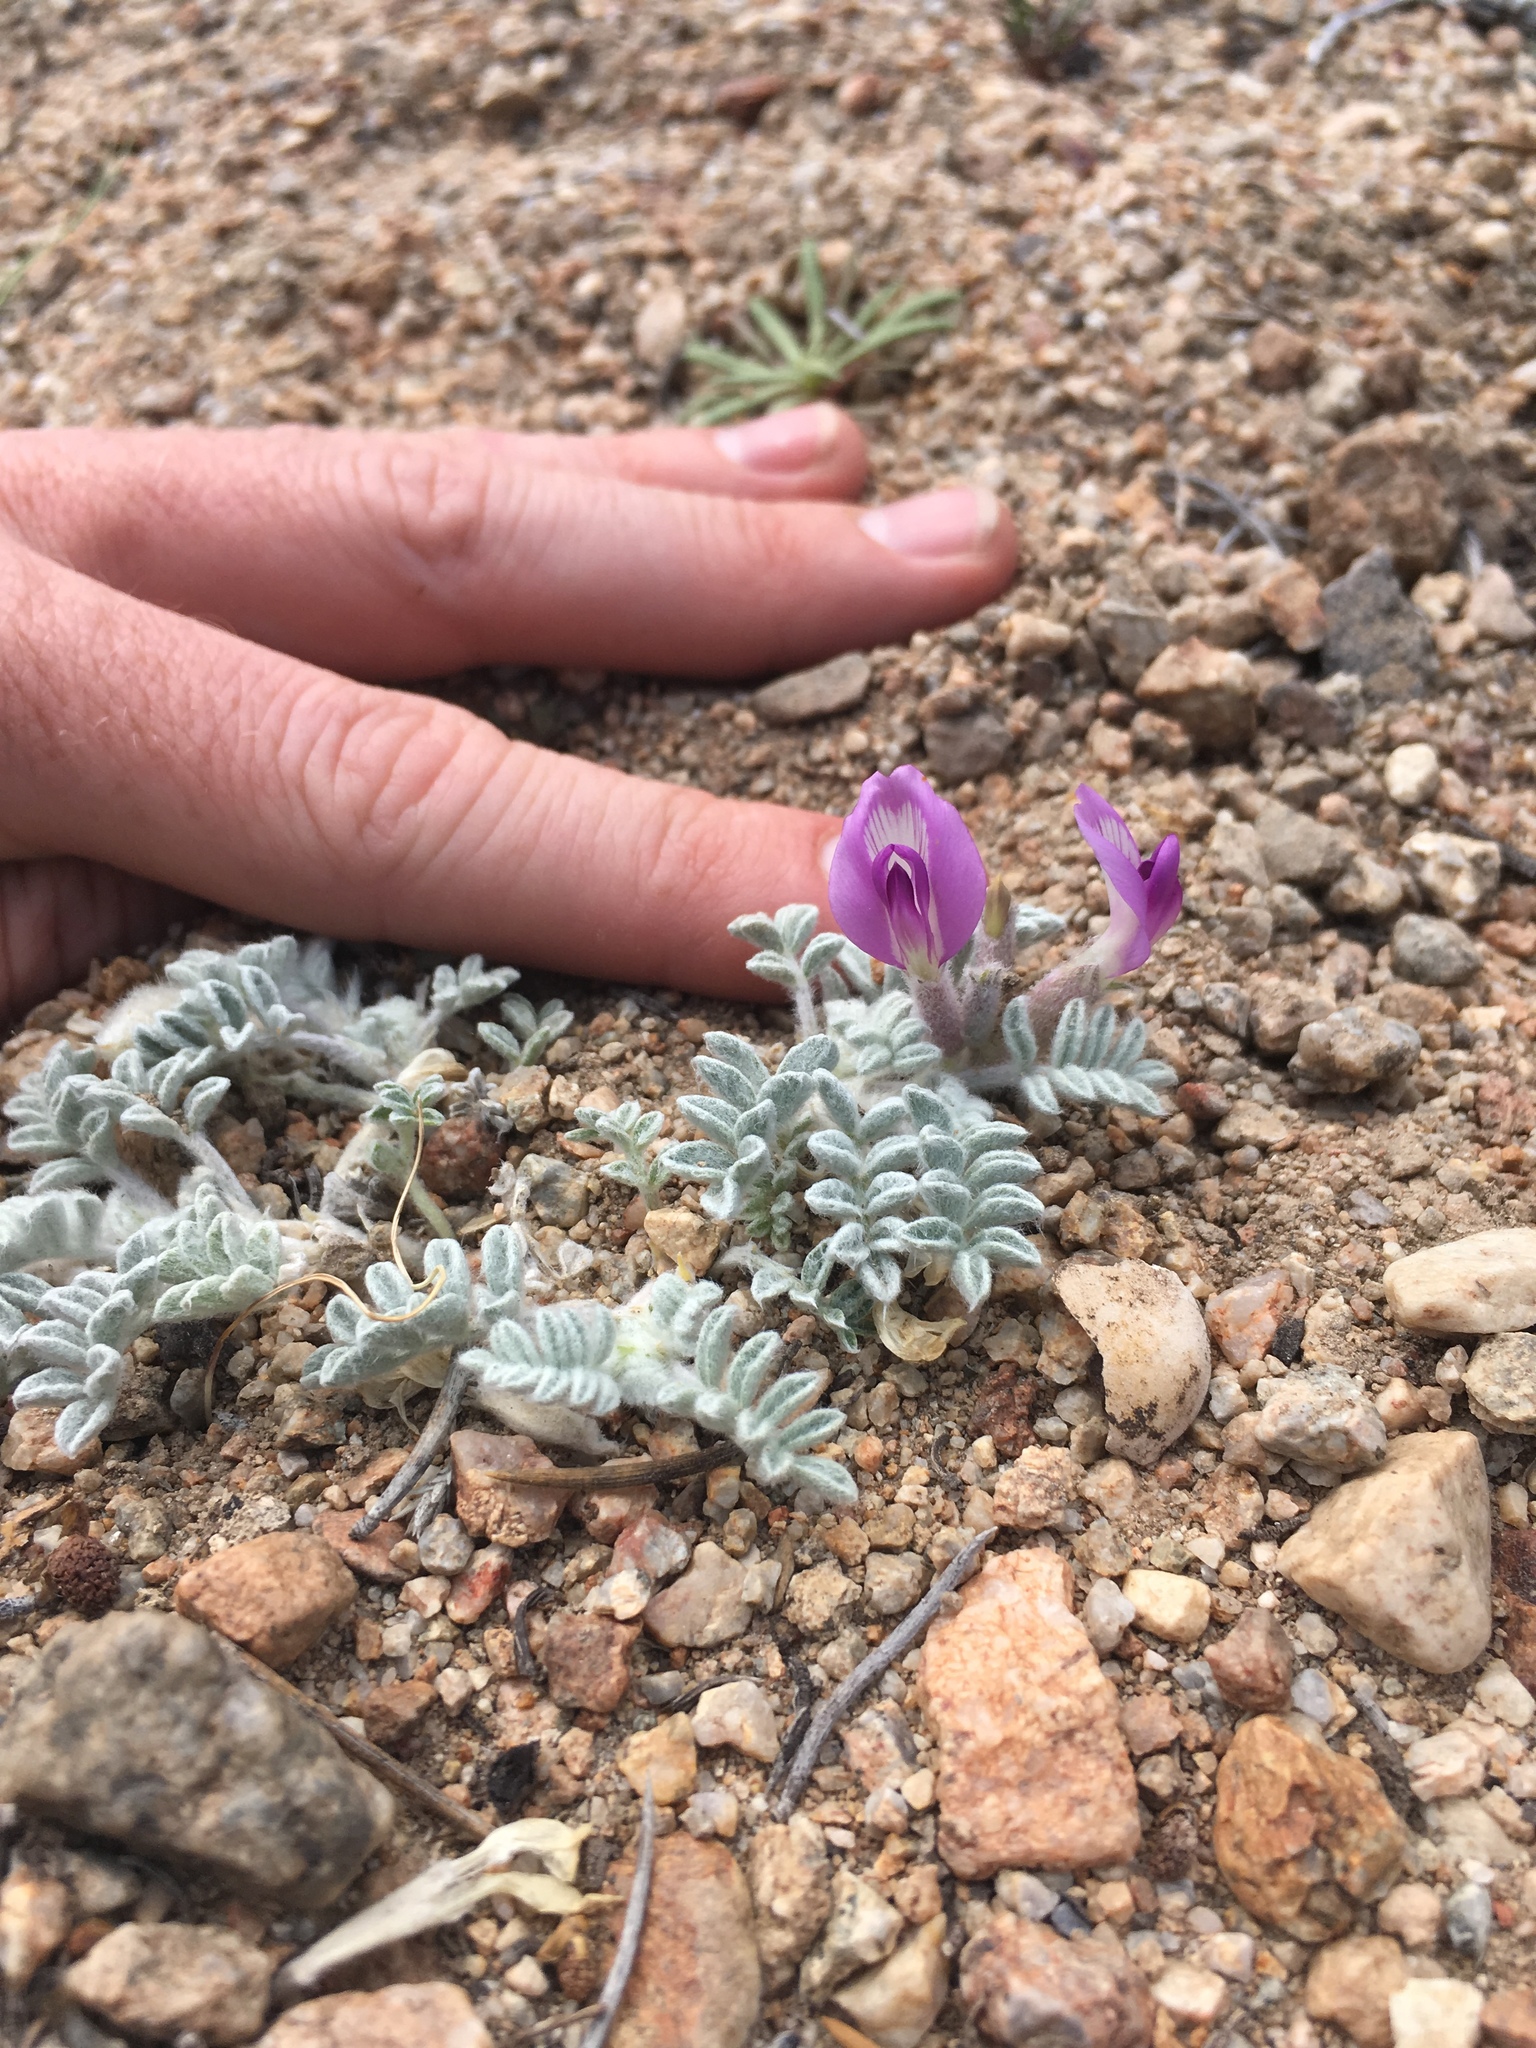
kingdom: Plantae
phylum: Tracheophyta
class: Magnoliopsida
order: Fabales
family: Fabaceae
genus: Astragalus
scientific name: Astragalus purshii
